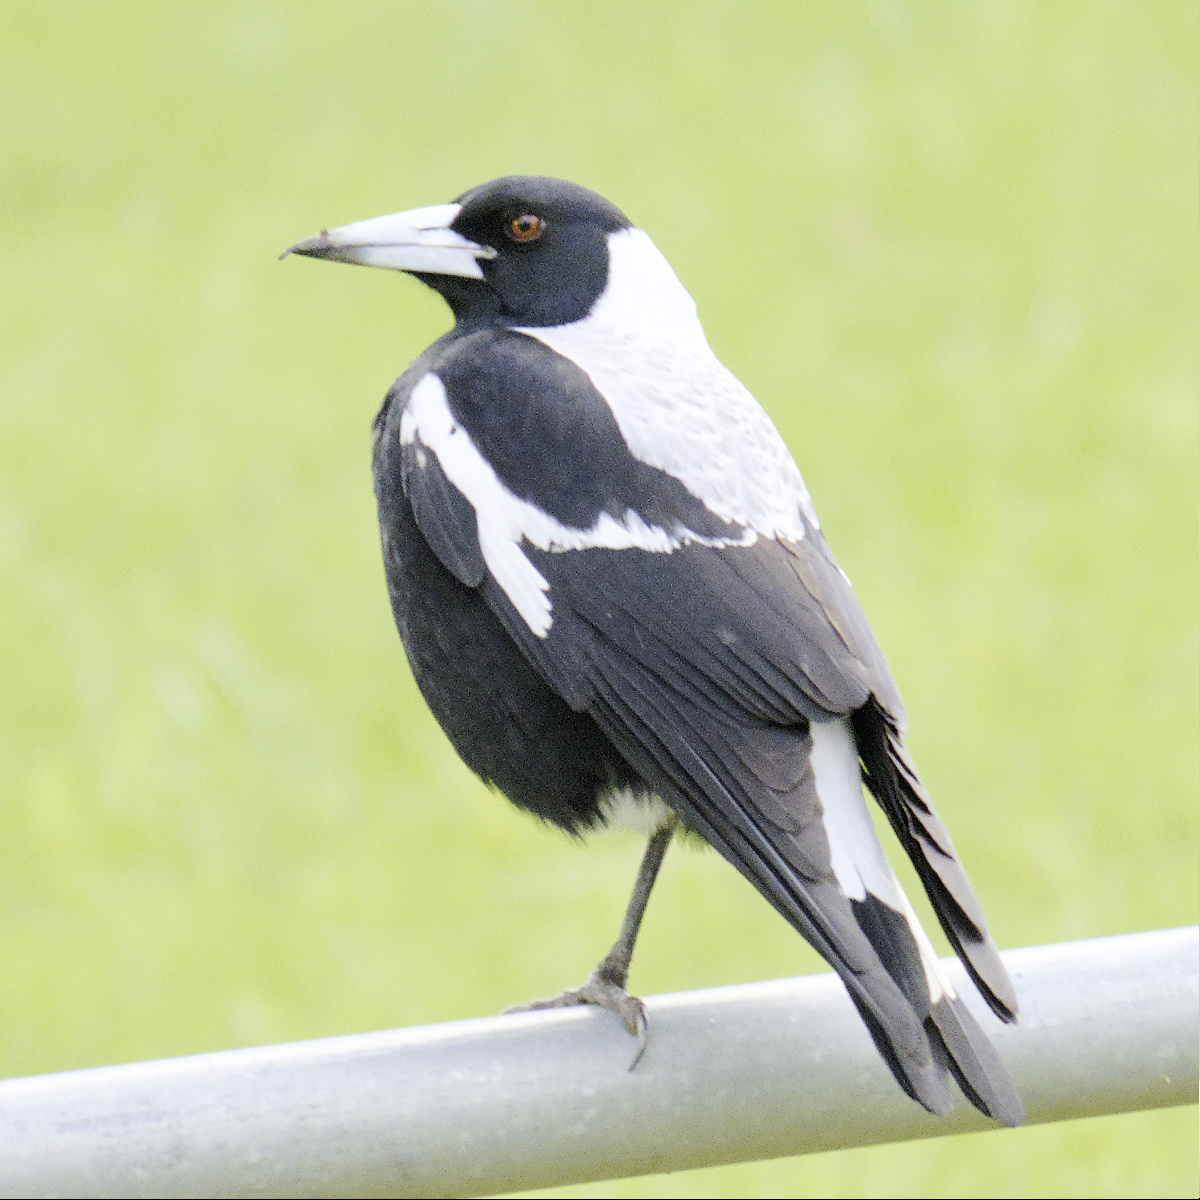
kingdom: Animalia
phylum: Chordata
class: Aves
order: Passeriformes
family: Cracticidae
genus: Gymnorhina
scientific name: Gymnorhina tibicen
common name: Australian magpie
